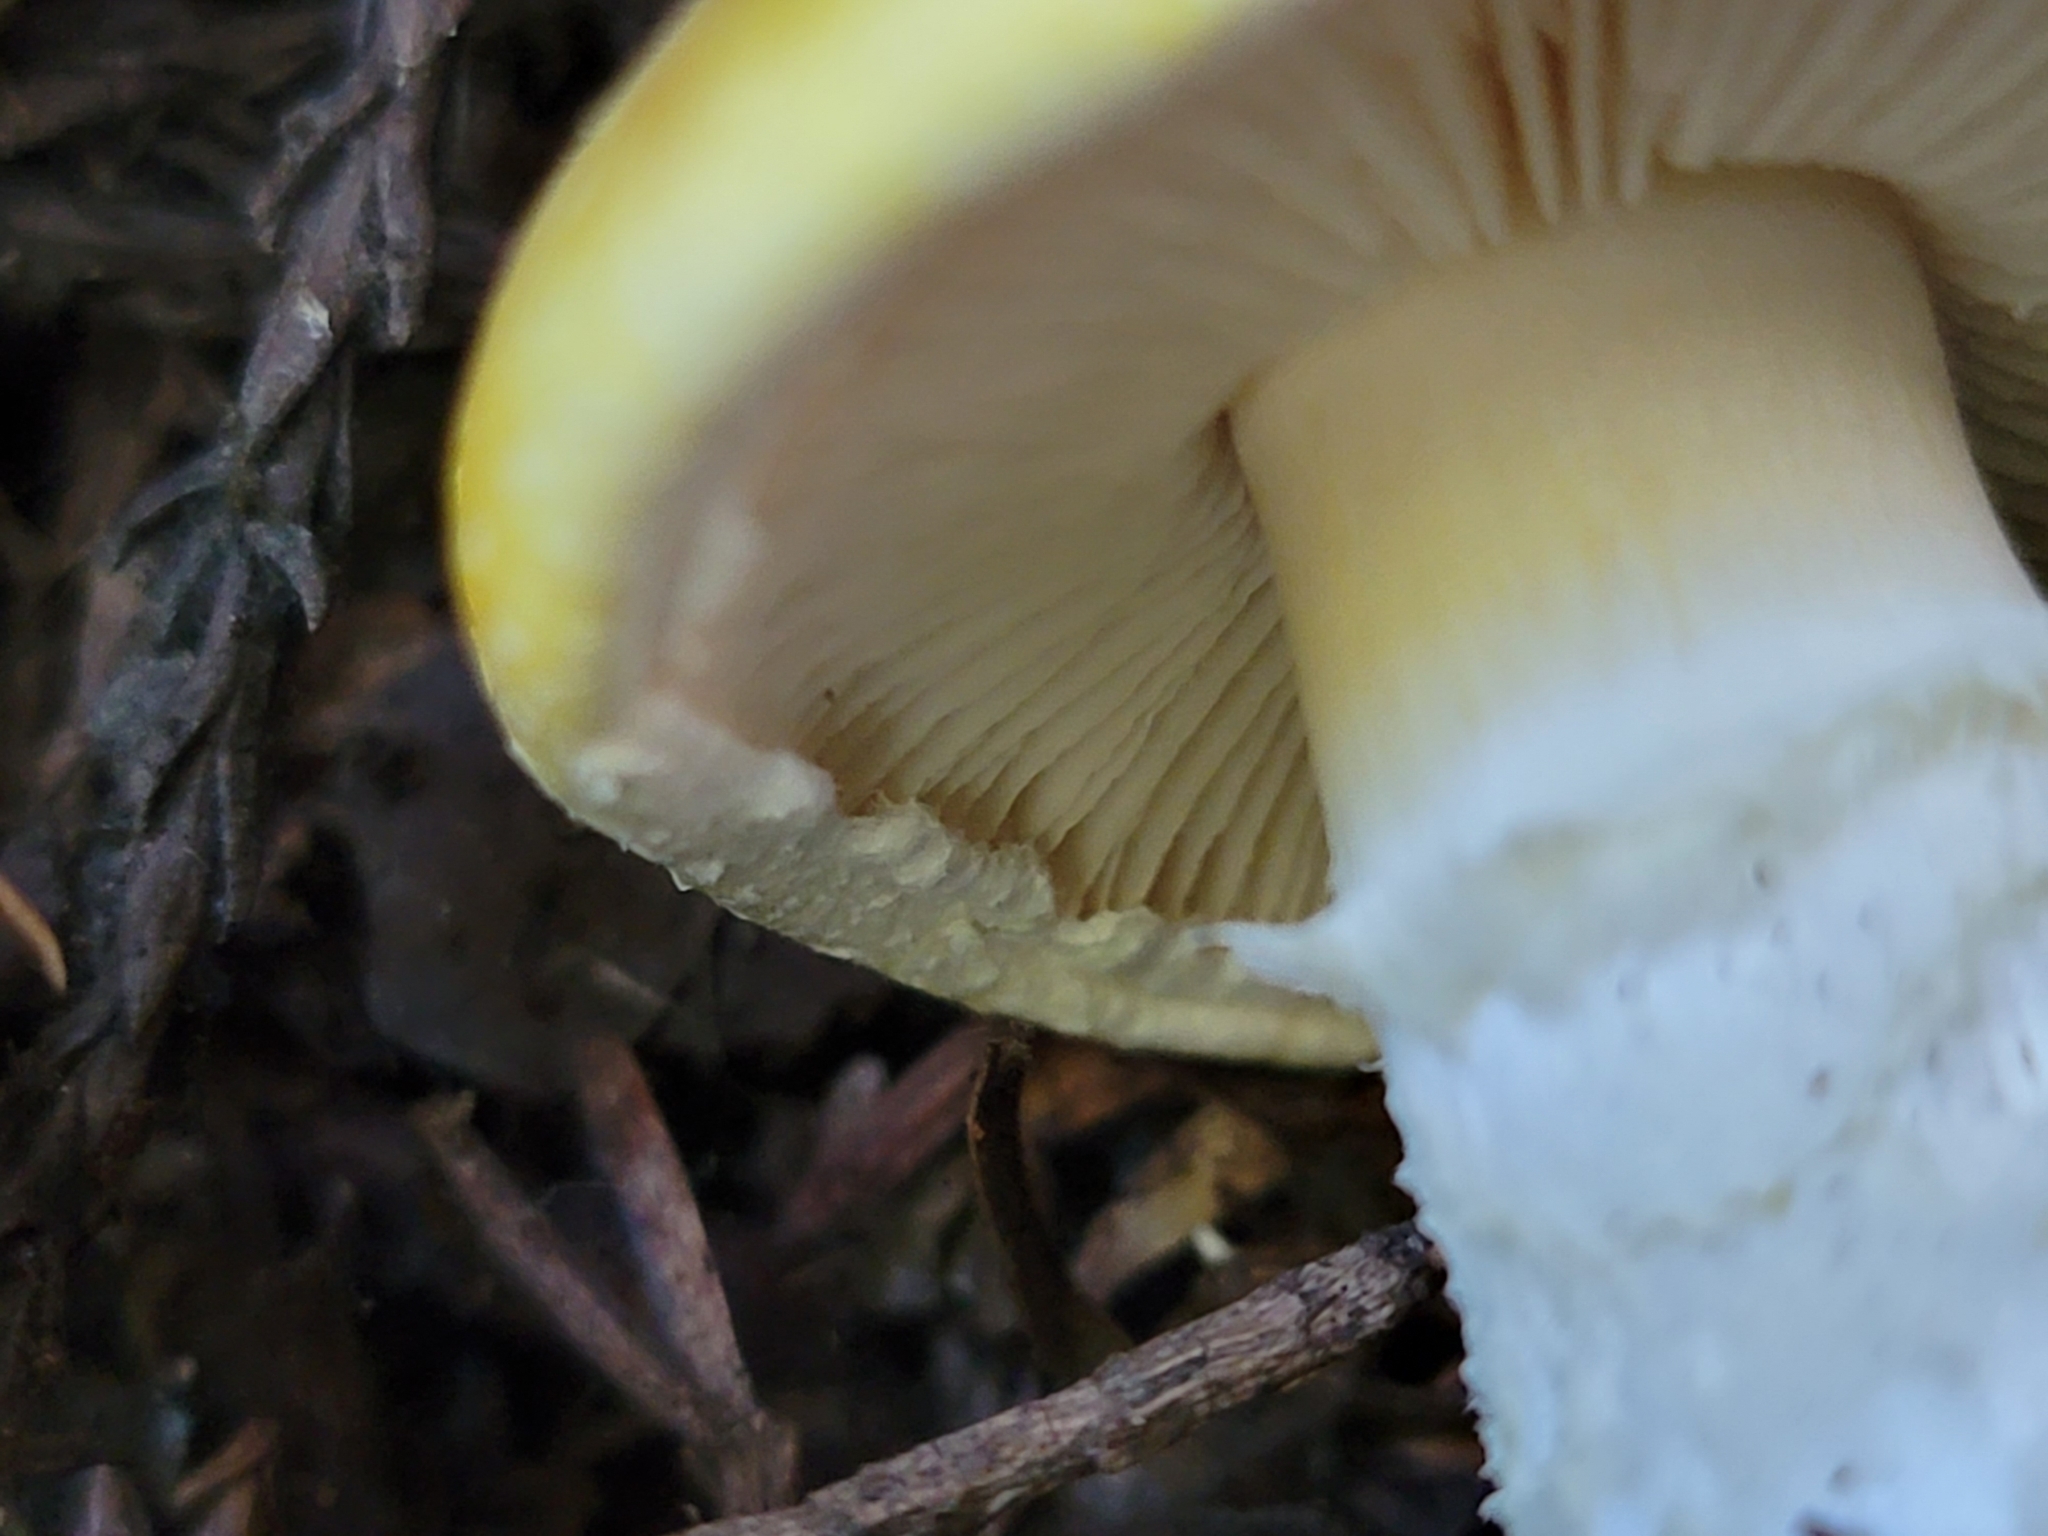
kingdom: Fungi
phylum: Basidiomycota
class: Agaricomycetes
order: Agaricales
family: Agaricaceae
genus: Floccularia
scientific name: Floccularia albolanaripes
